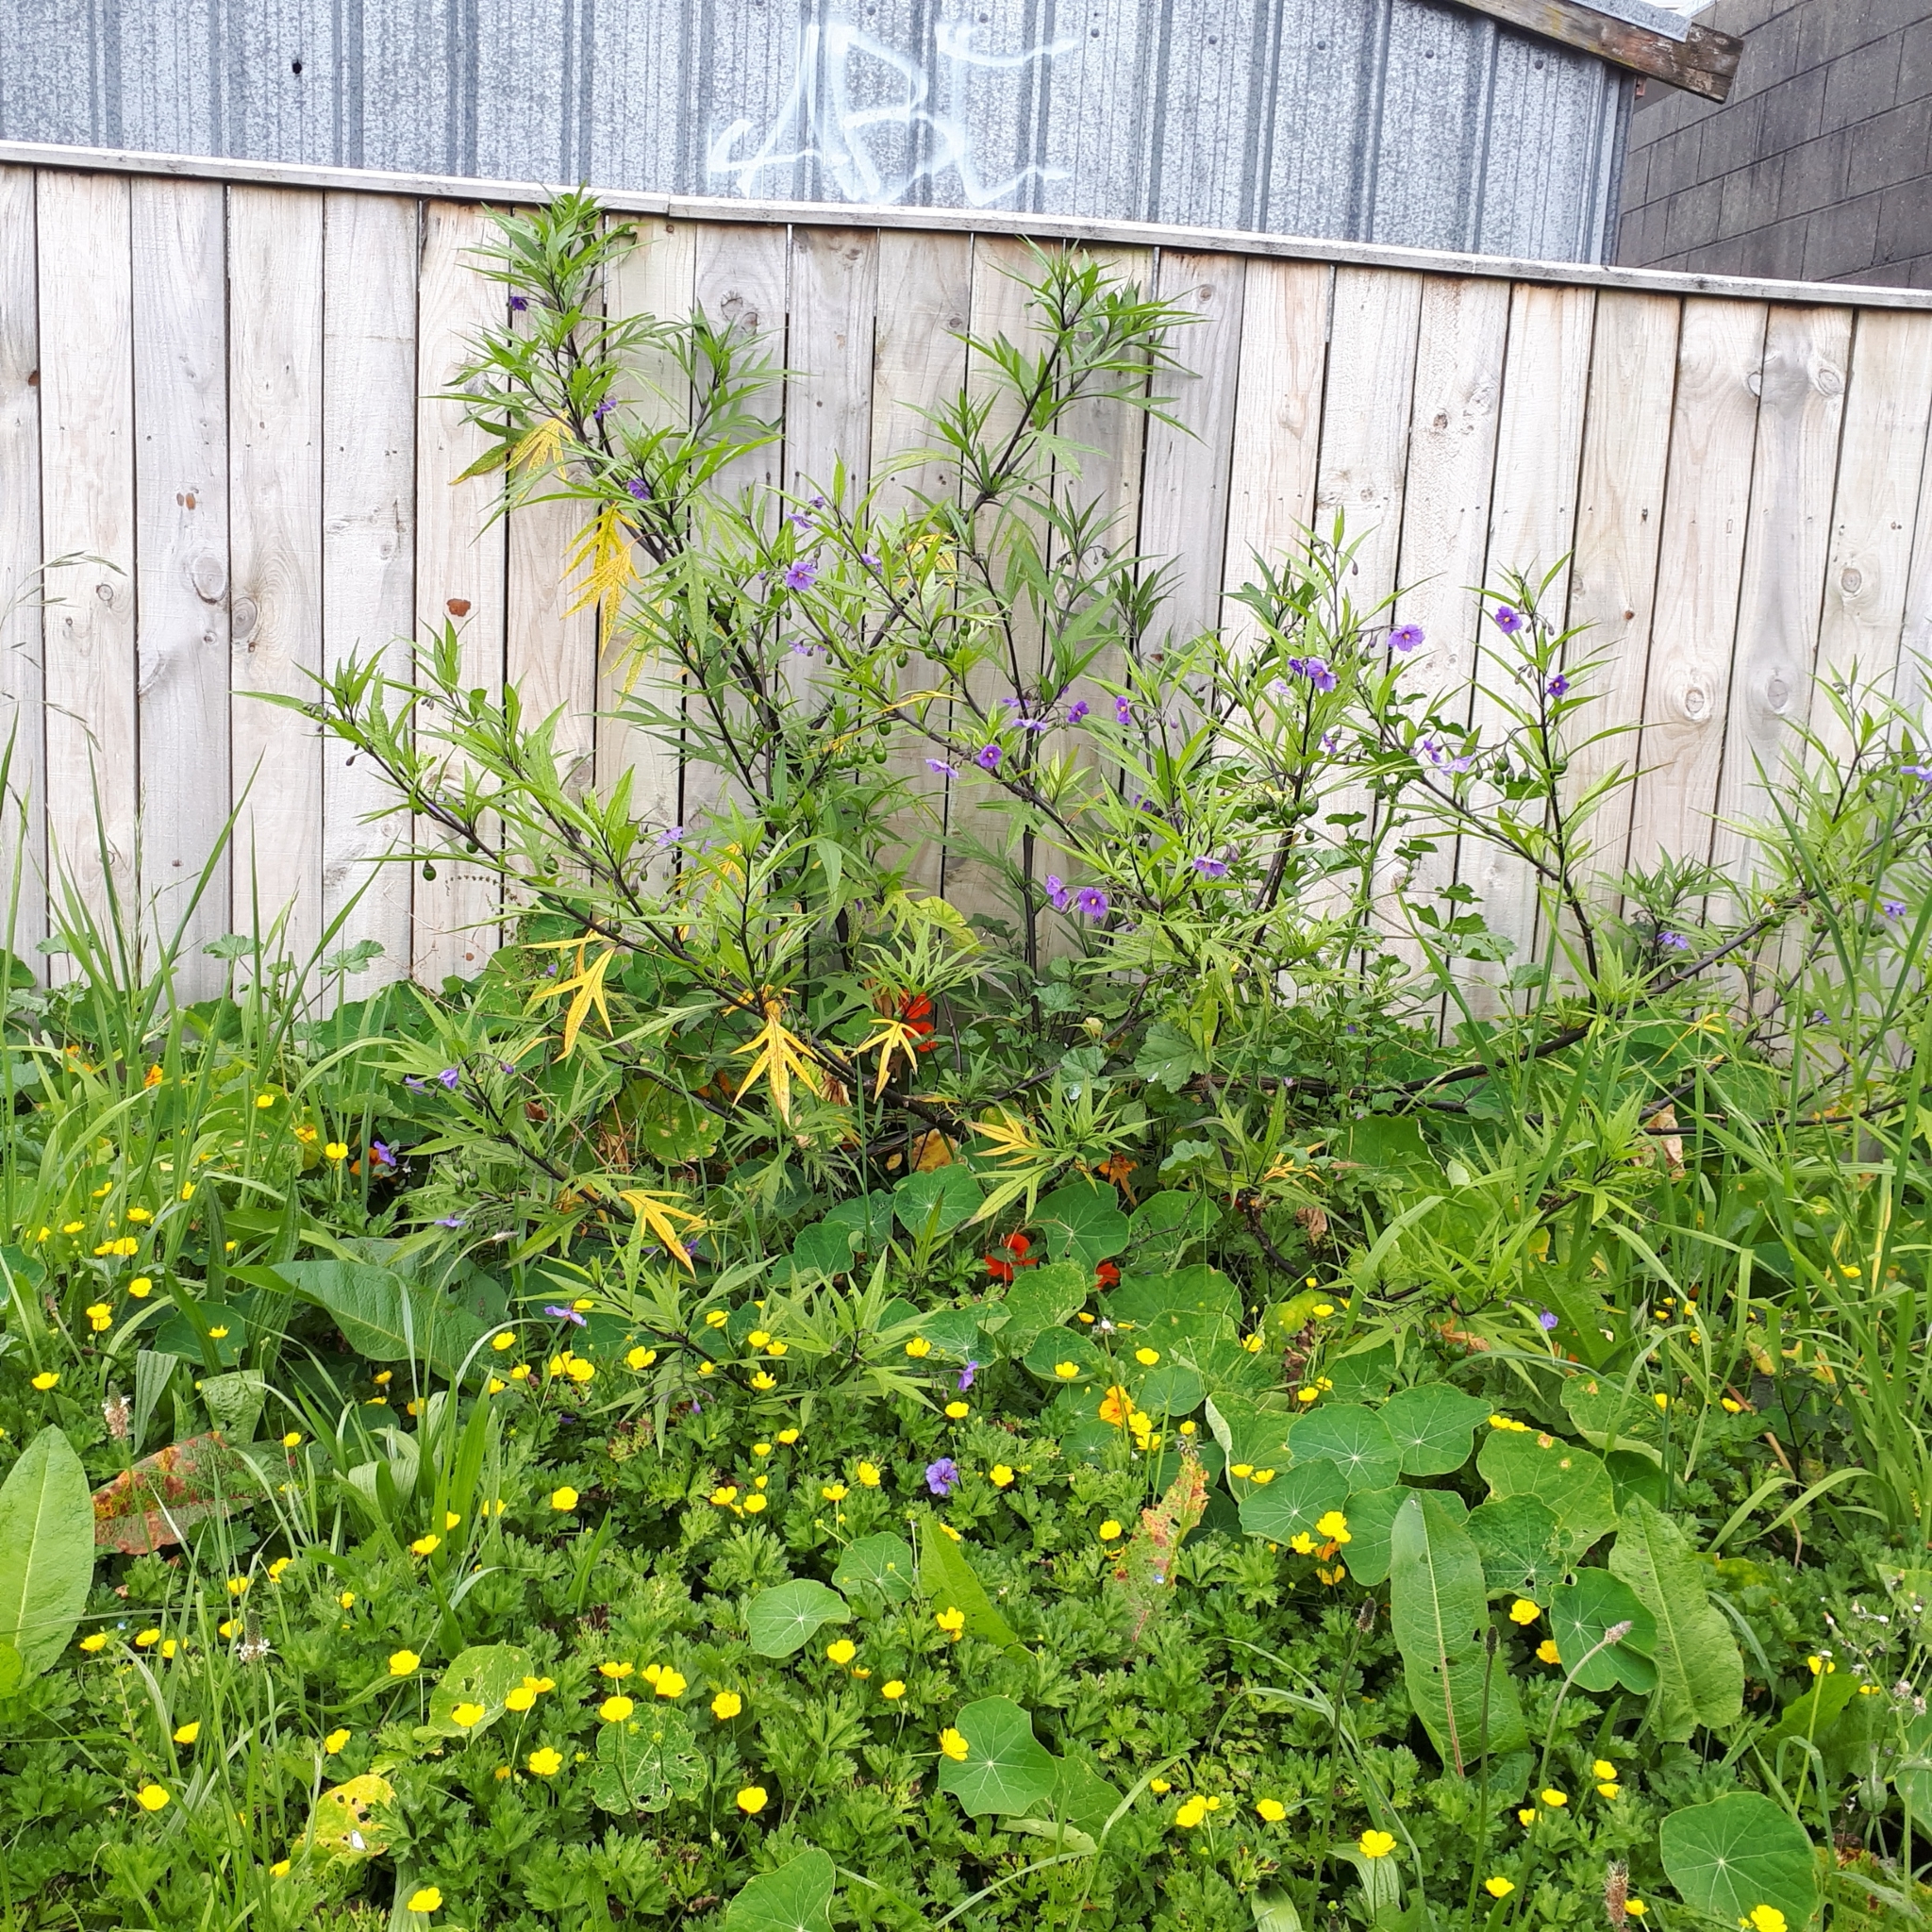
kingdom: Plantae
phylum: Tracheophyta
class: Magnoliopsida
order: Solanales
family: Solanaceae
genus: Solanum
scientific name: Solanum laciniatum
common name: Kangaroo-apple
